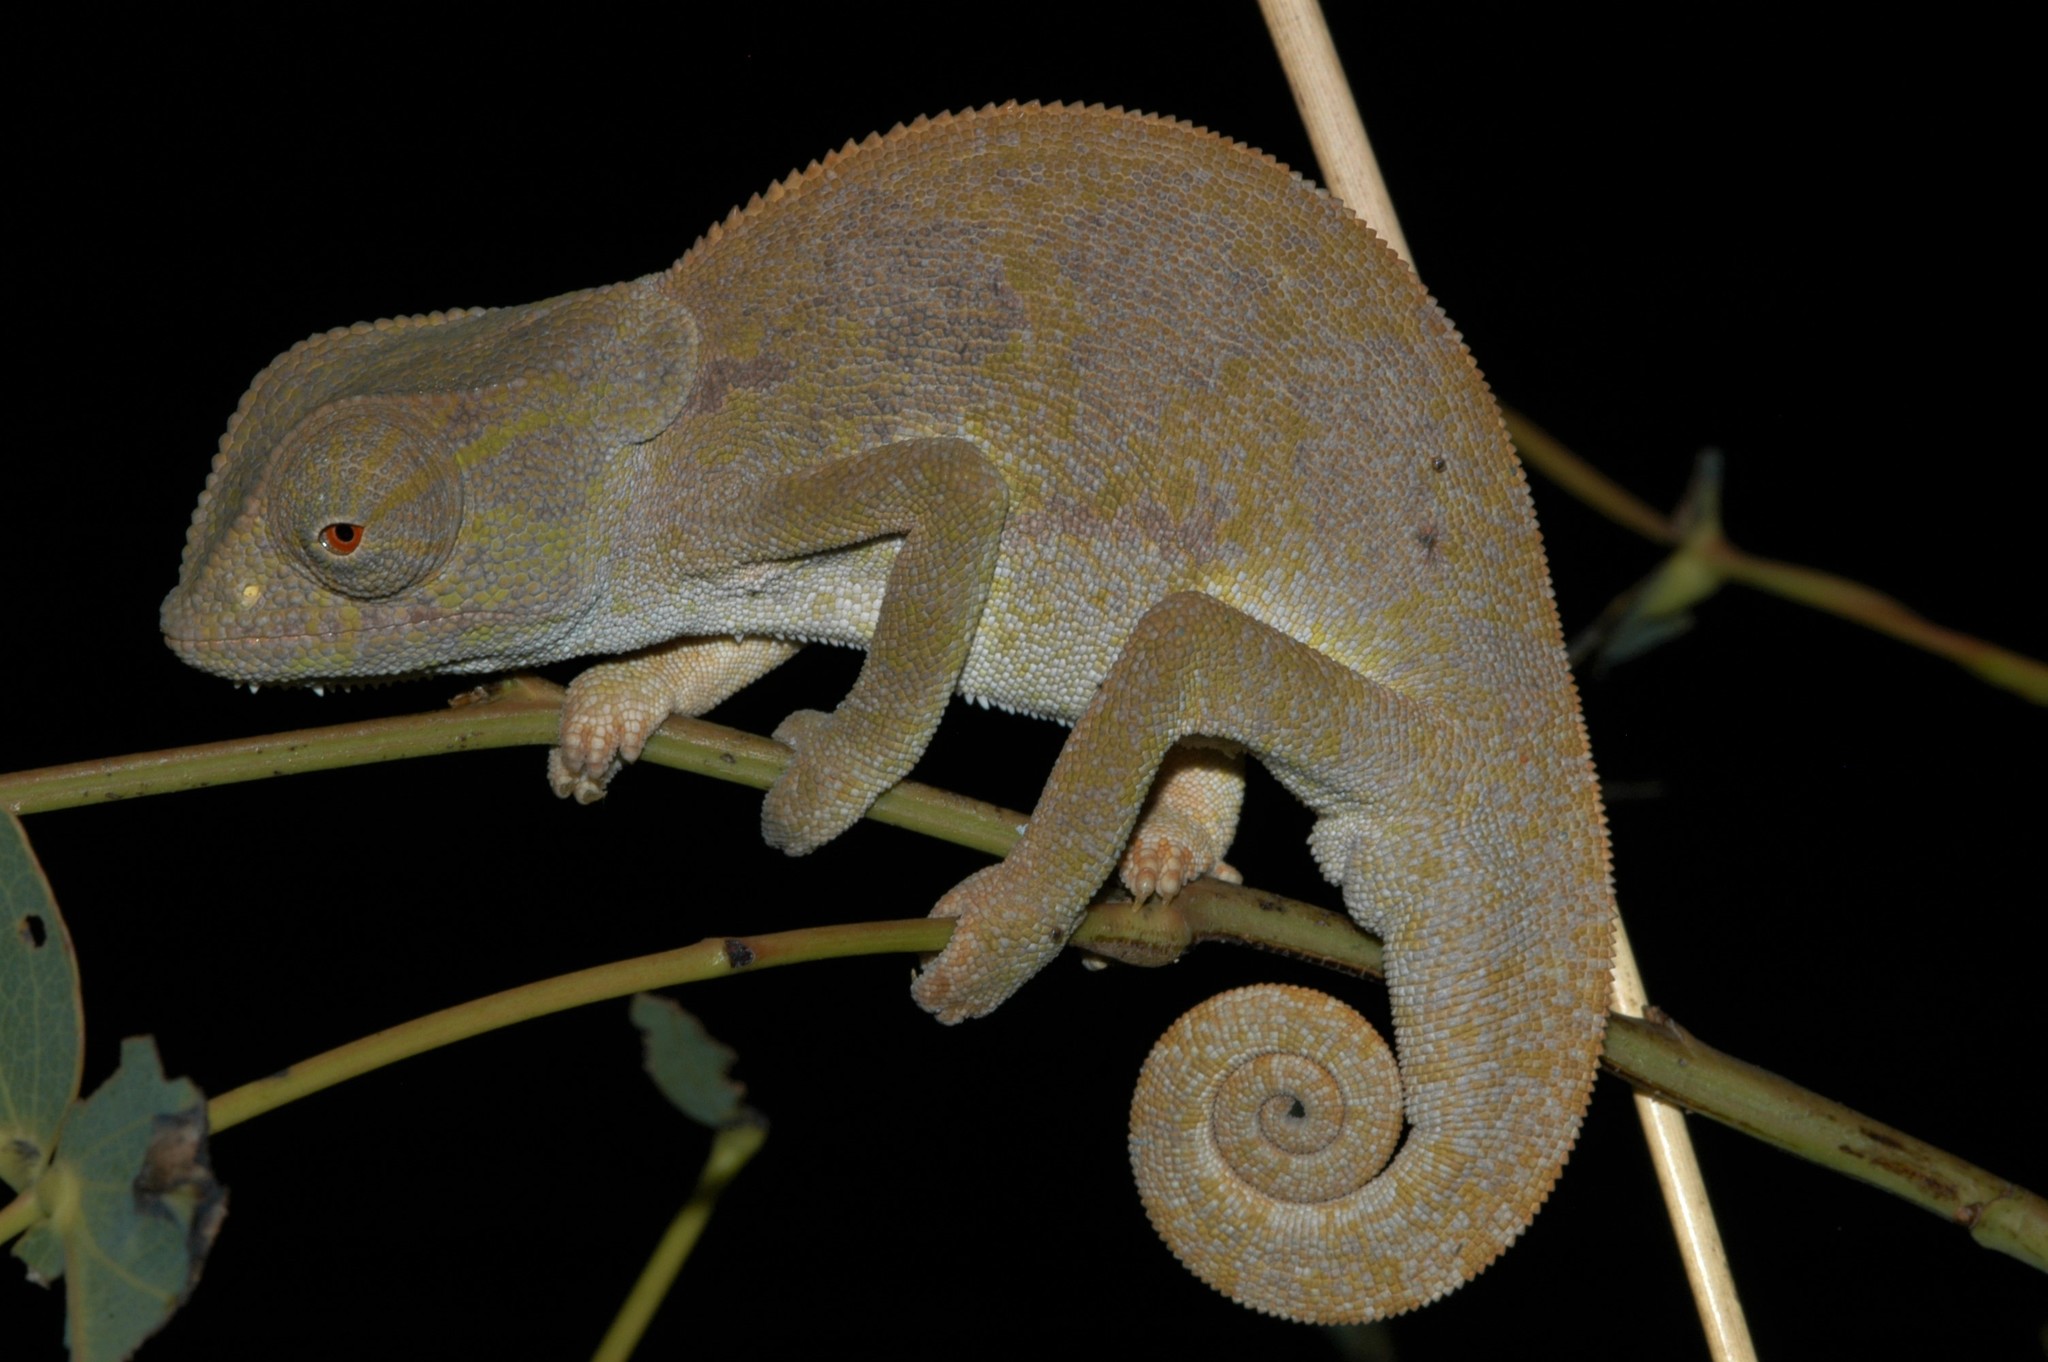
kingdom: Animalia
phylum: Chordata
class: Squamata
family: Chamaeleonidae
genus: Chamaeleo
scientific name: Chamaeleo dilepis
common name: Flapneck chameleon
